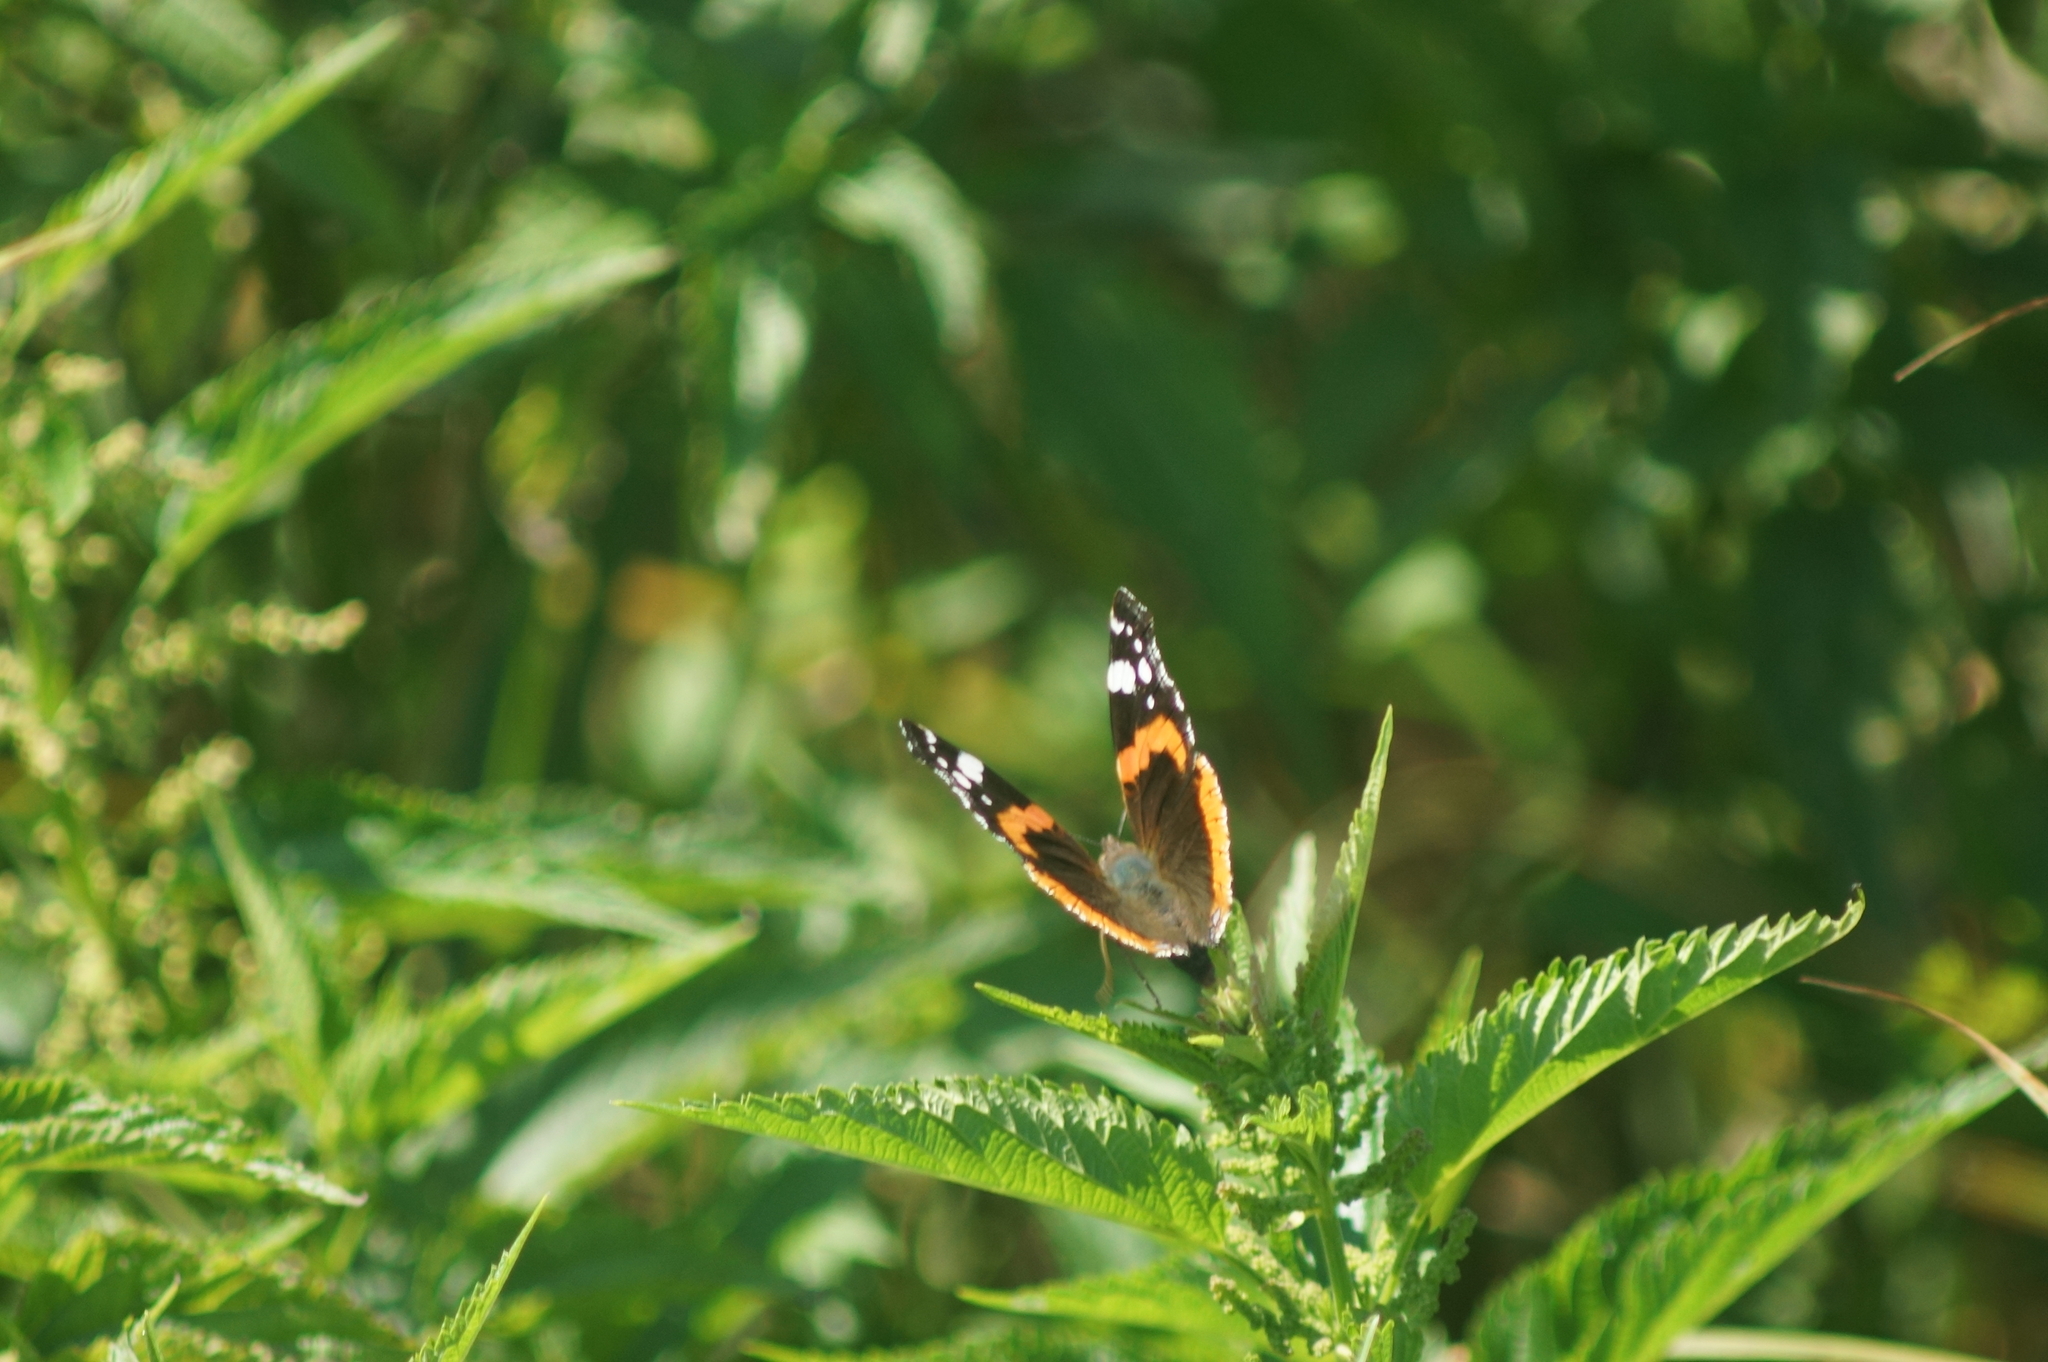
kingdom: Animalia
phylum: Arthropoda
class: Insecta
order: Lepidoptera
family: Nymphalidae
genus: Vanessa
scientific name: Vanessa atalanta
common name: Red admiral
